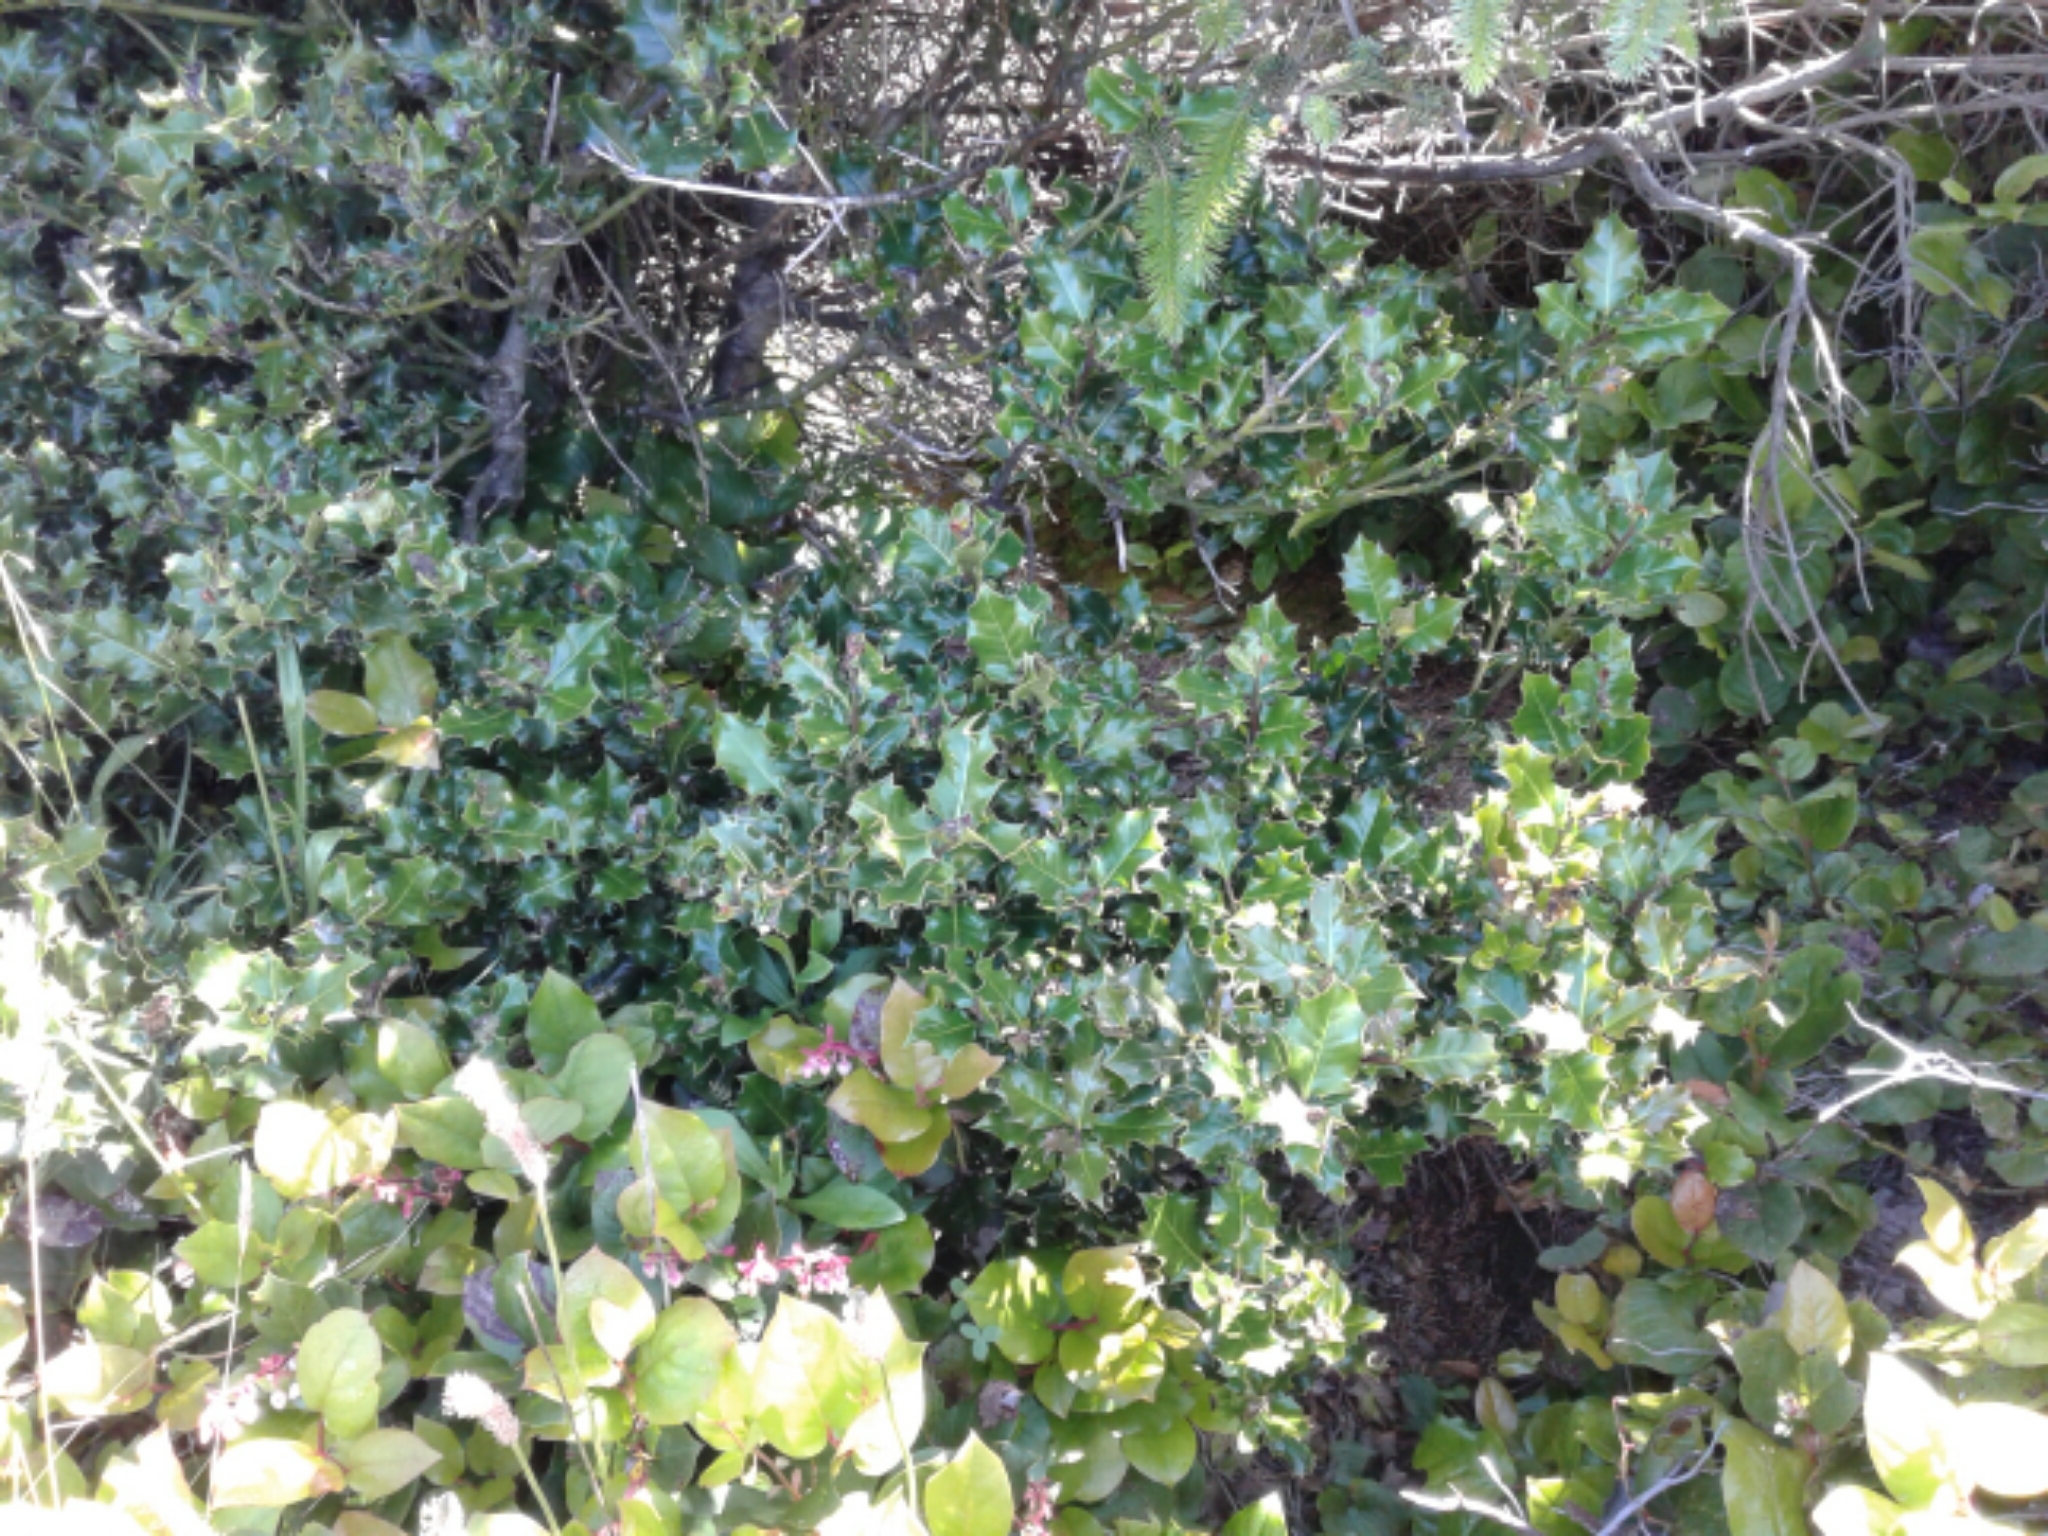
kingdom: Plantae
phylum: Tracheophyta
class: Magnoliopsida
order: Aquifoliales
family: Aquifoliaceae
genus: Ilex
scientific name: Ilex aquifolium
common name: English holly
